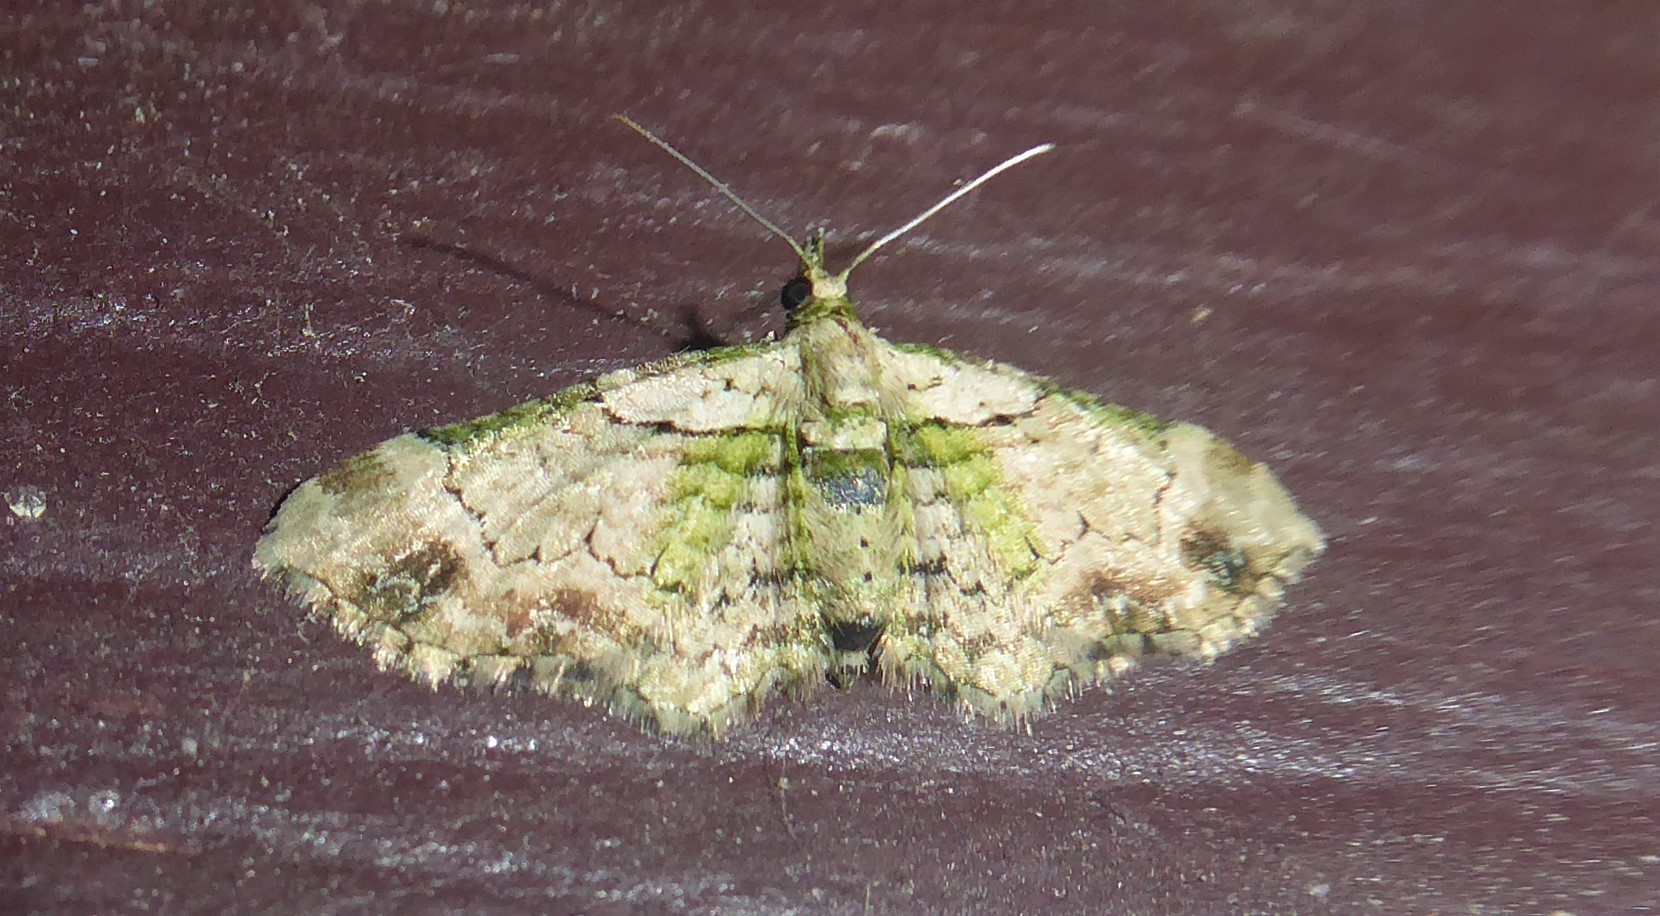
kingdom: Animalia
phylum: Arthropoda
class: Insecta
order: Lepidoptera
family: Geometridae
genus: Chloroclystis
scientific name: Chloroclystis
